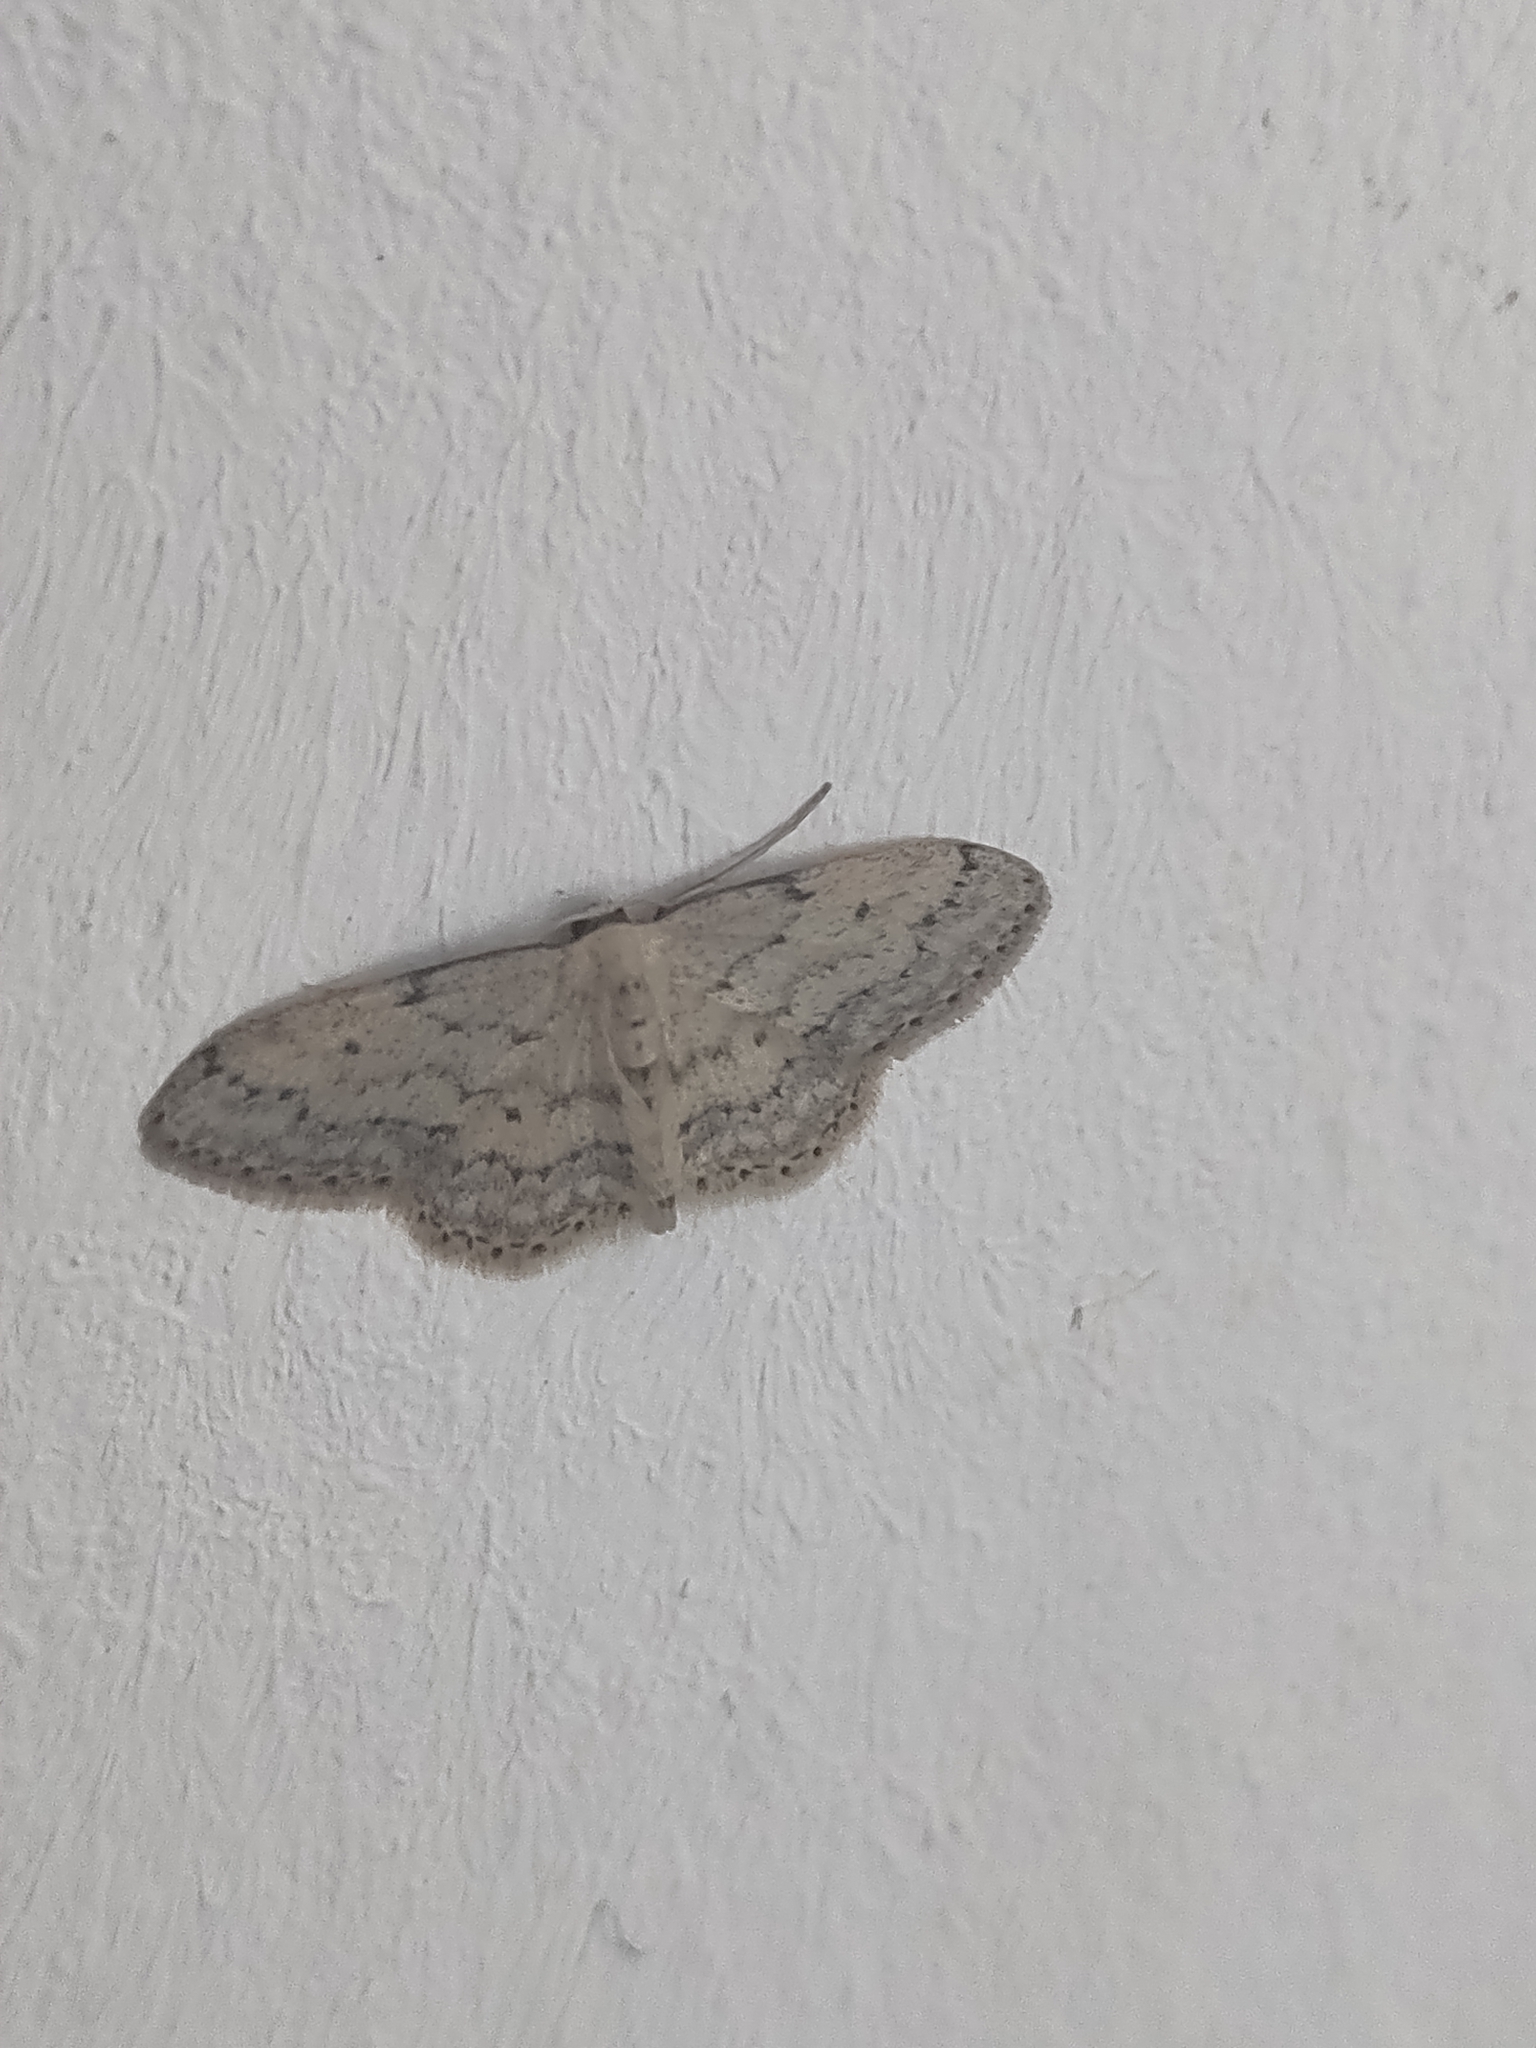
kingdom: Animalia
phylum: Arthropoda
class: Insecta
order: Lepidoptera
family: Geometridae
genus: Idaea
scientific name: Idaea seriata
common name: Small dusty wave
